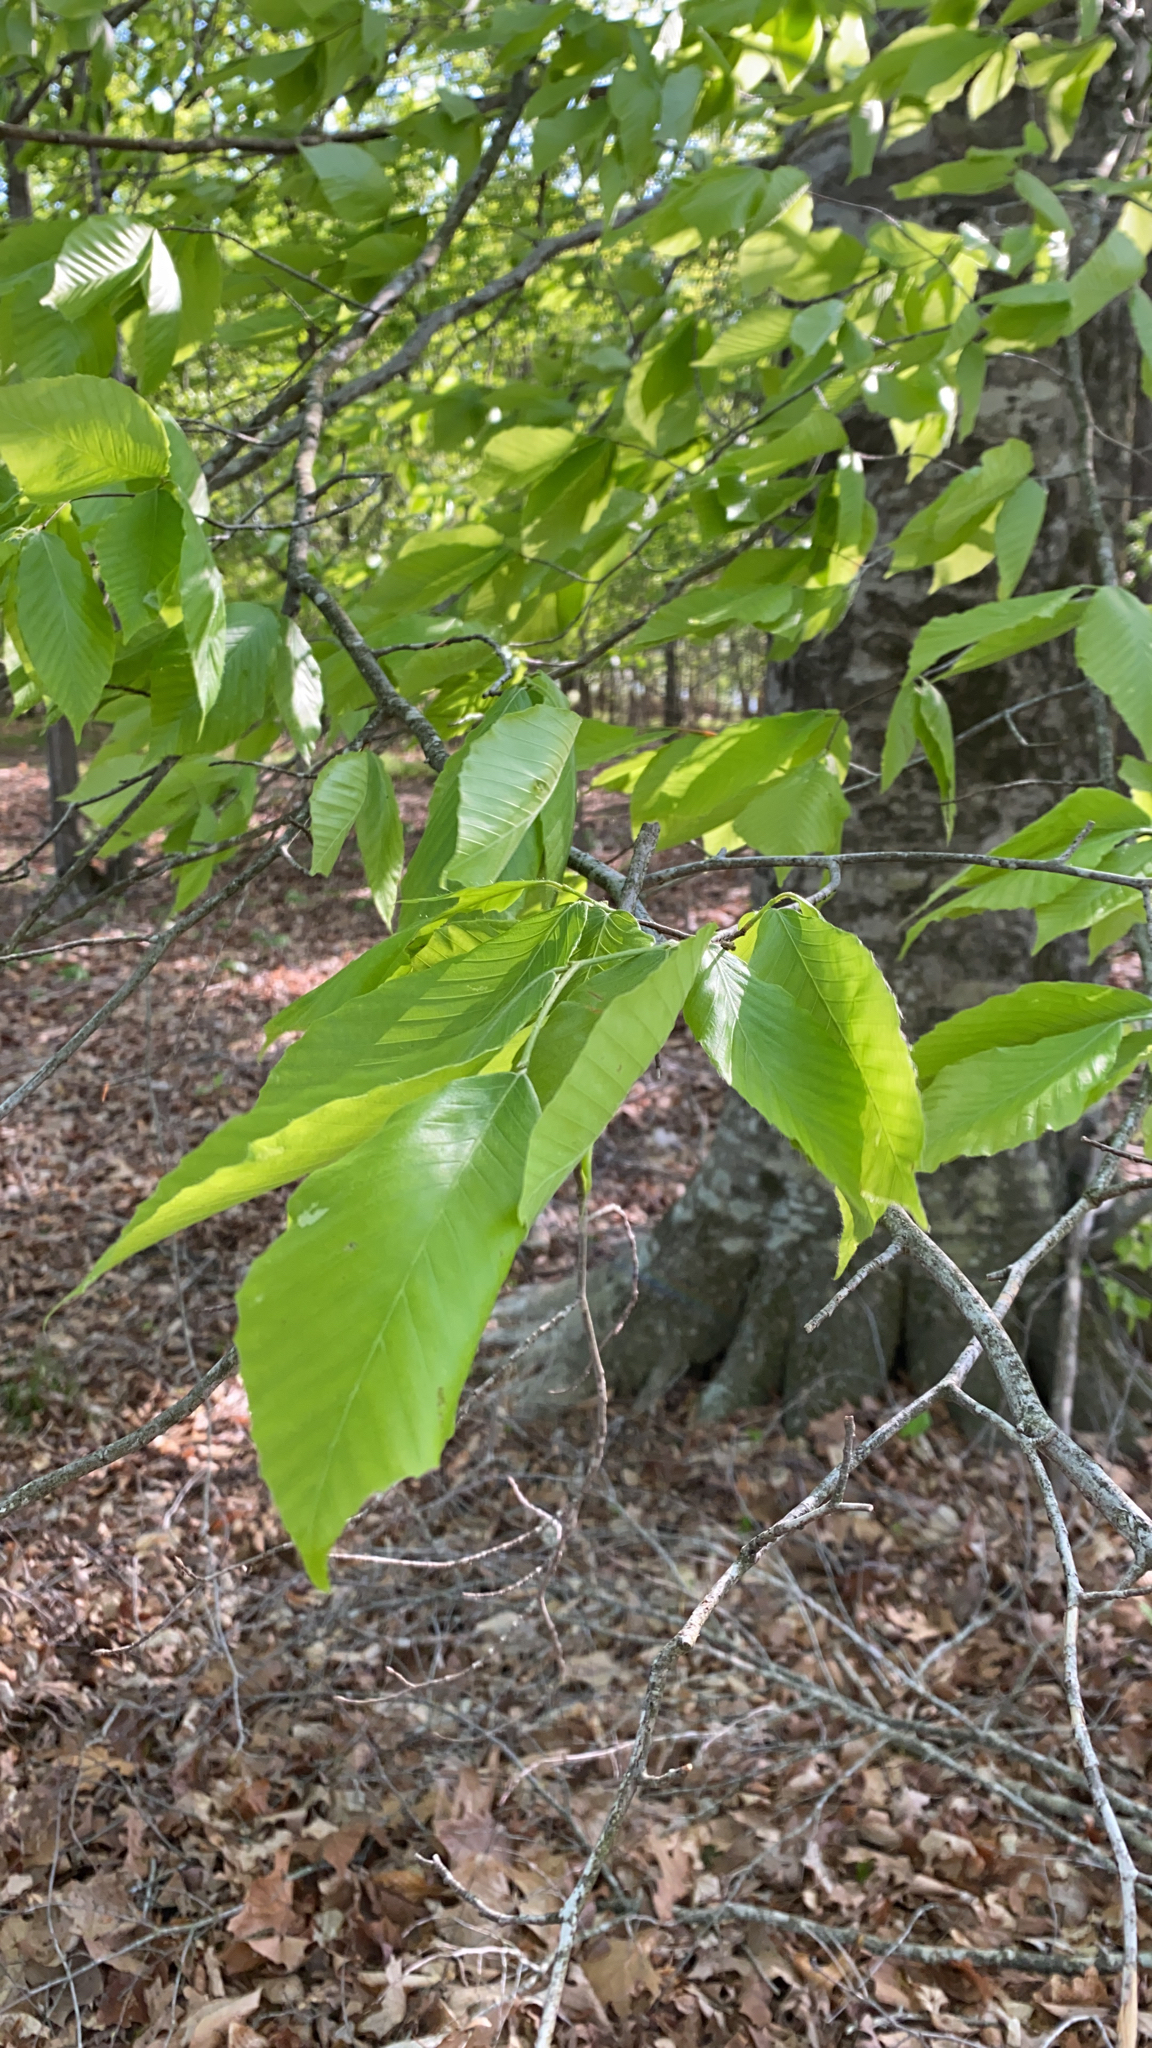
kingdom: Plantae
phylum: Tracheophyta
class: Magnoliopsida
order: Fagales
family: Fagaceae
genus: Fagus
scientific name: Fagus grandifolia
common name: American beech
